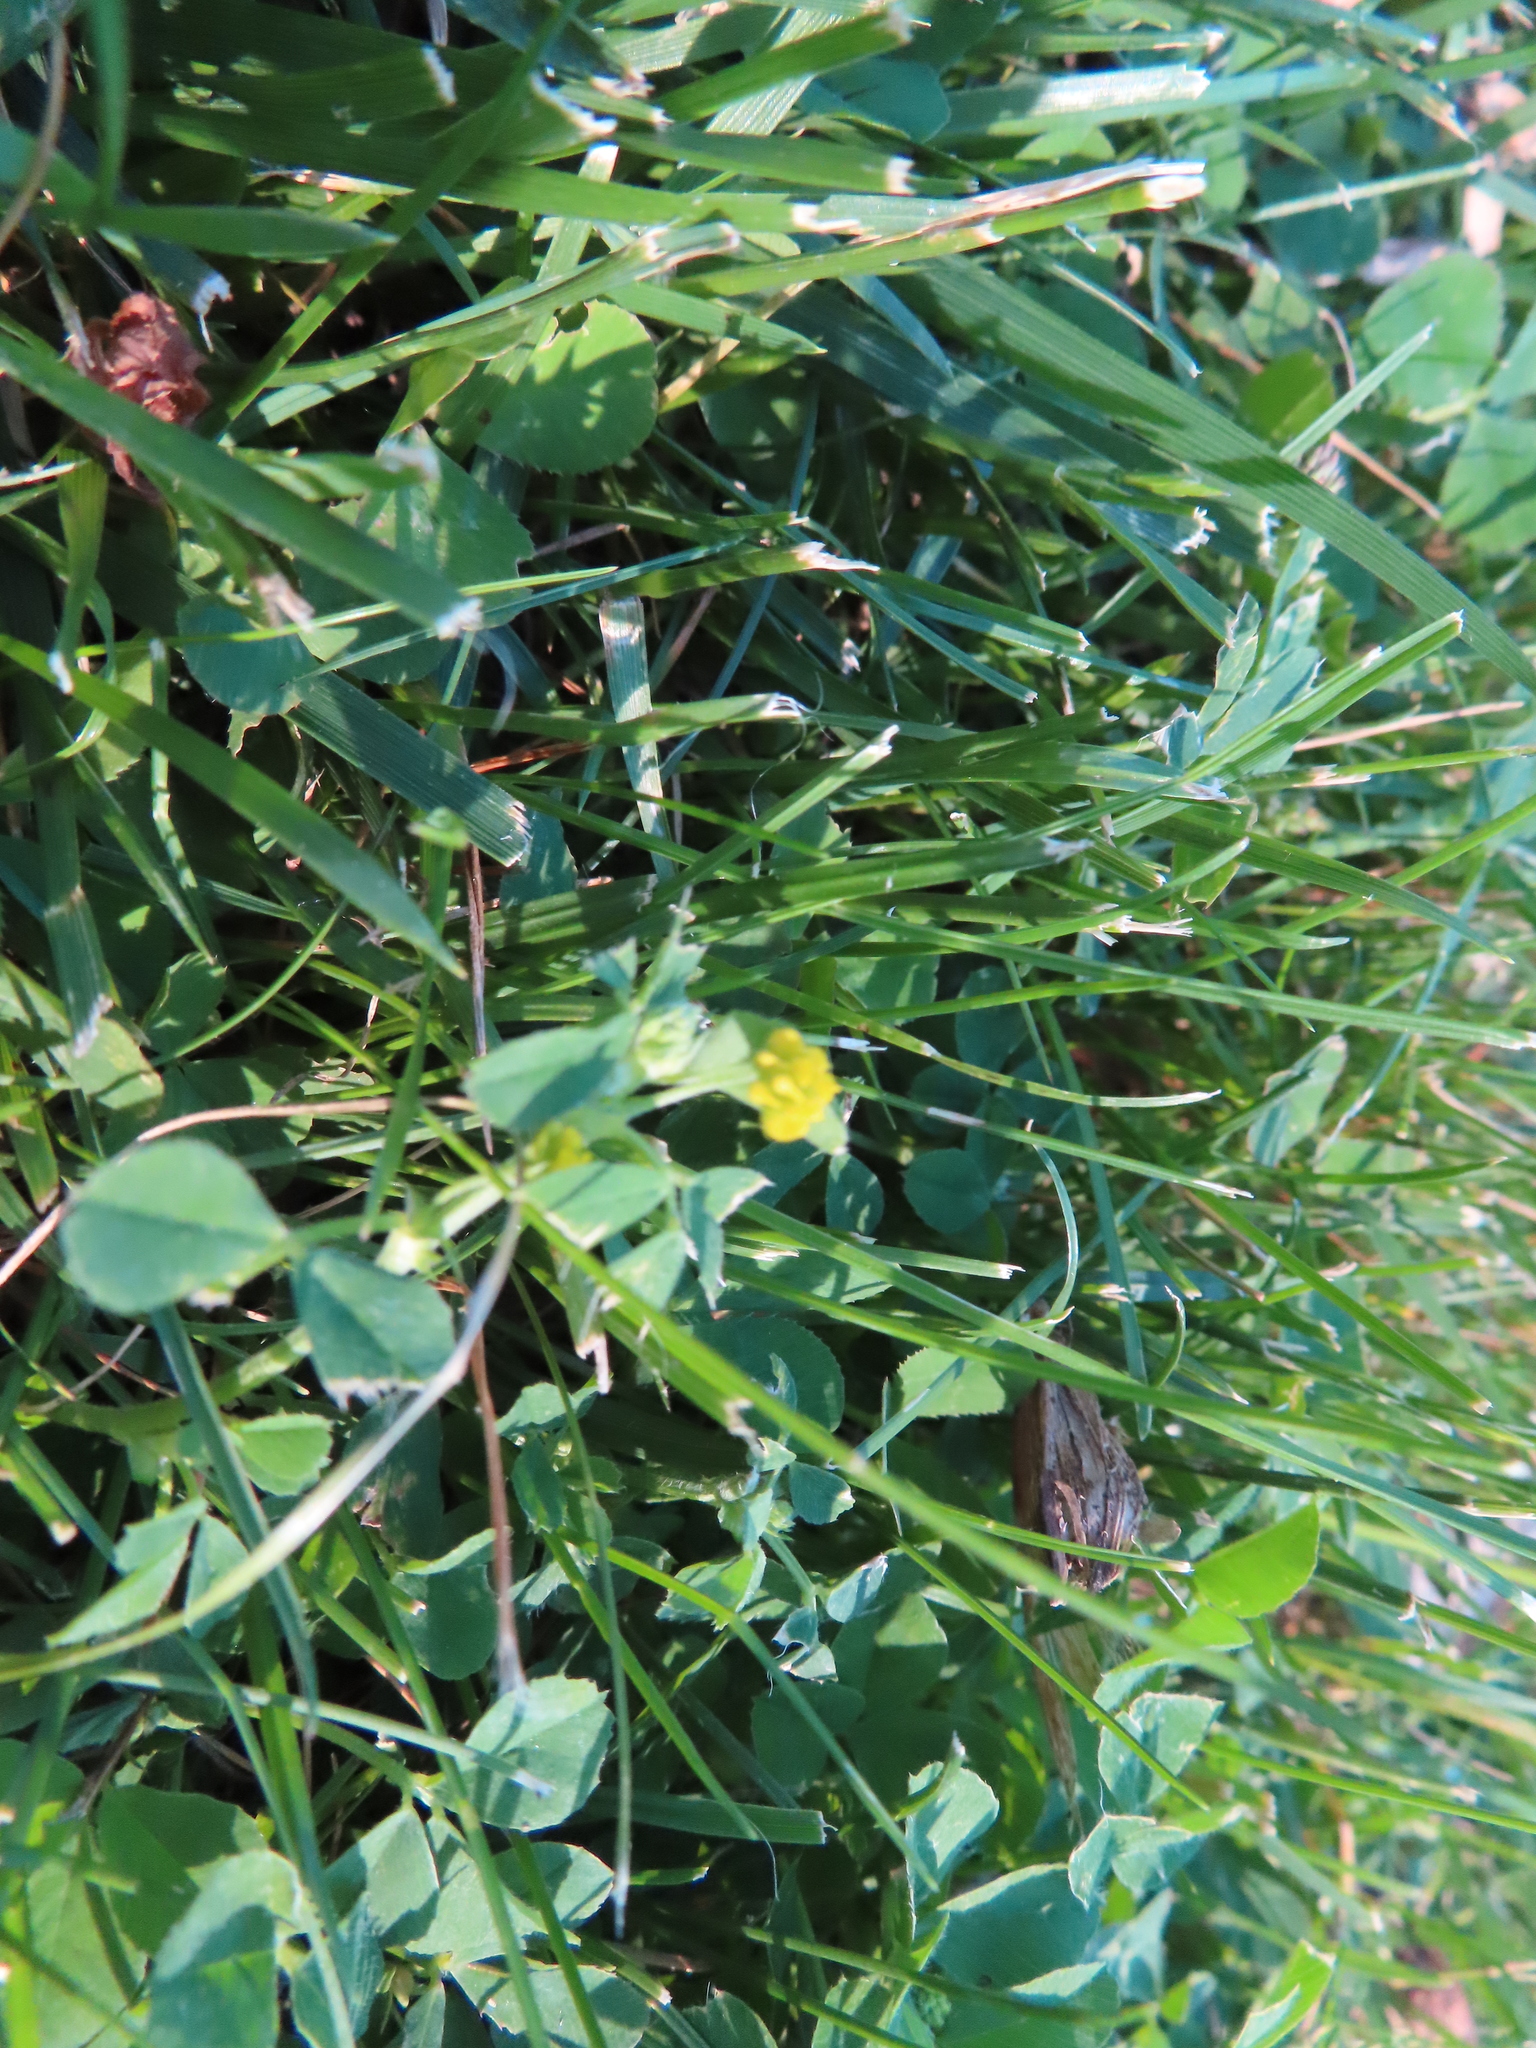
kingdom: Plantae
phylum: Tracheophyta
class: Magnoliopsida
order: Fabales
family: Fabaceae
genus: Medicago
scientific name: Medicago lupulina
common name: Black medick
